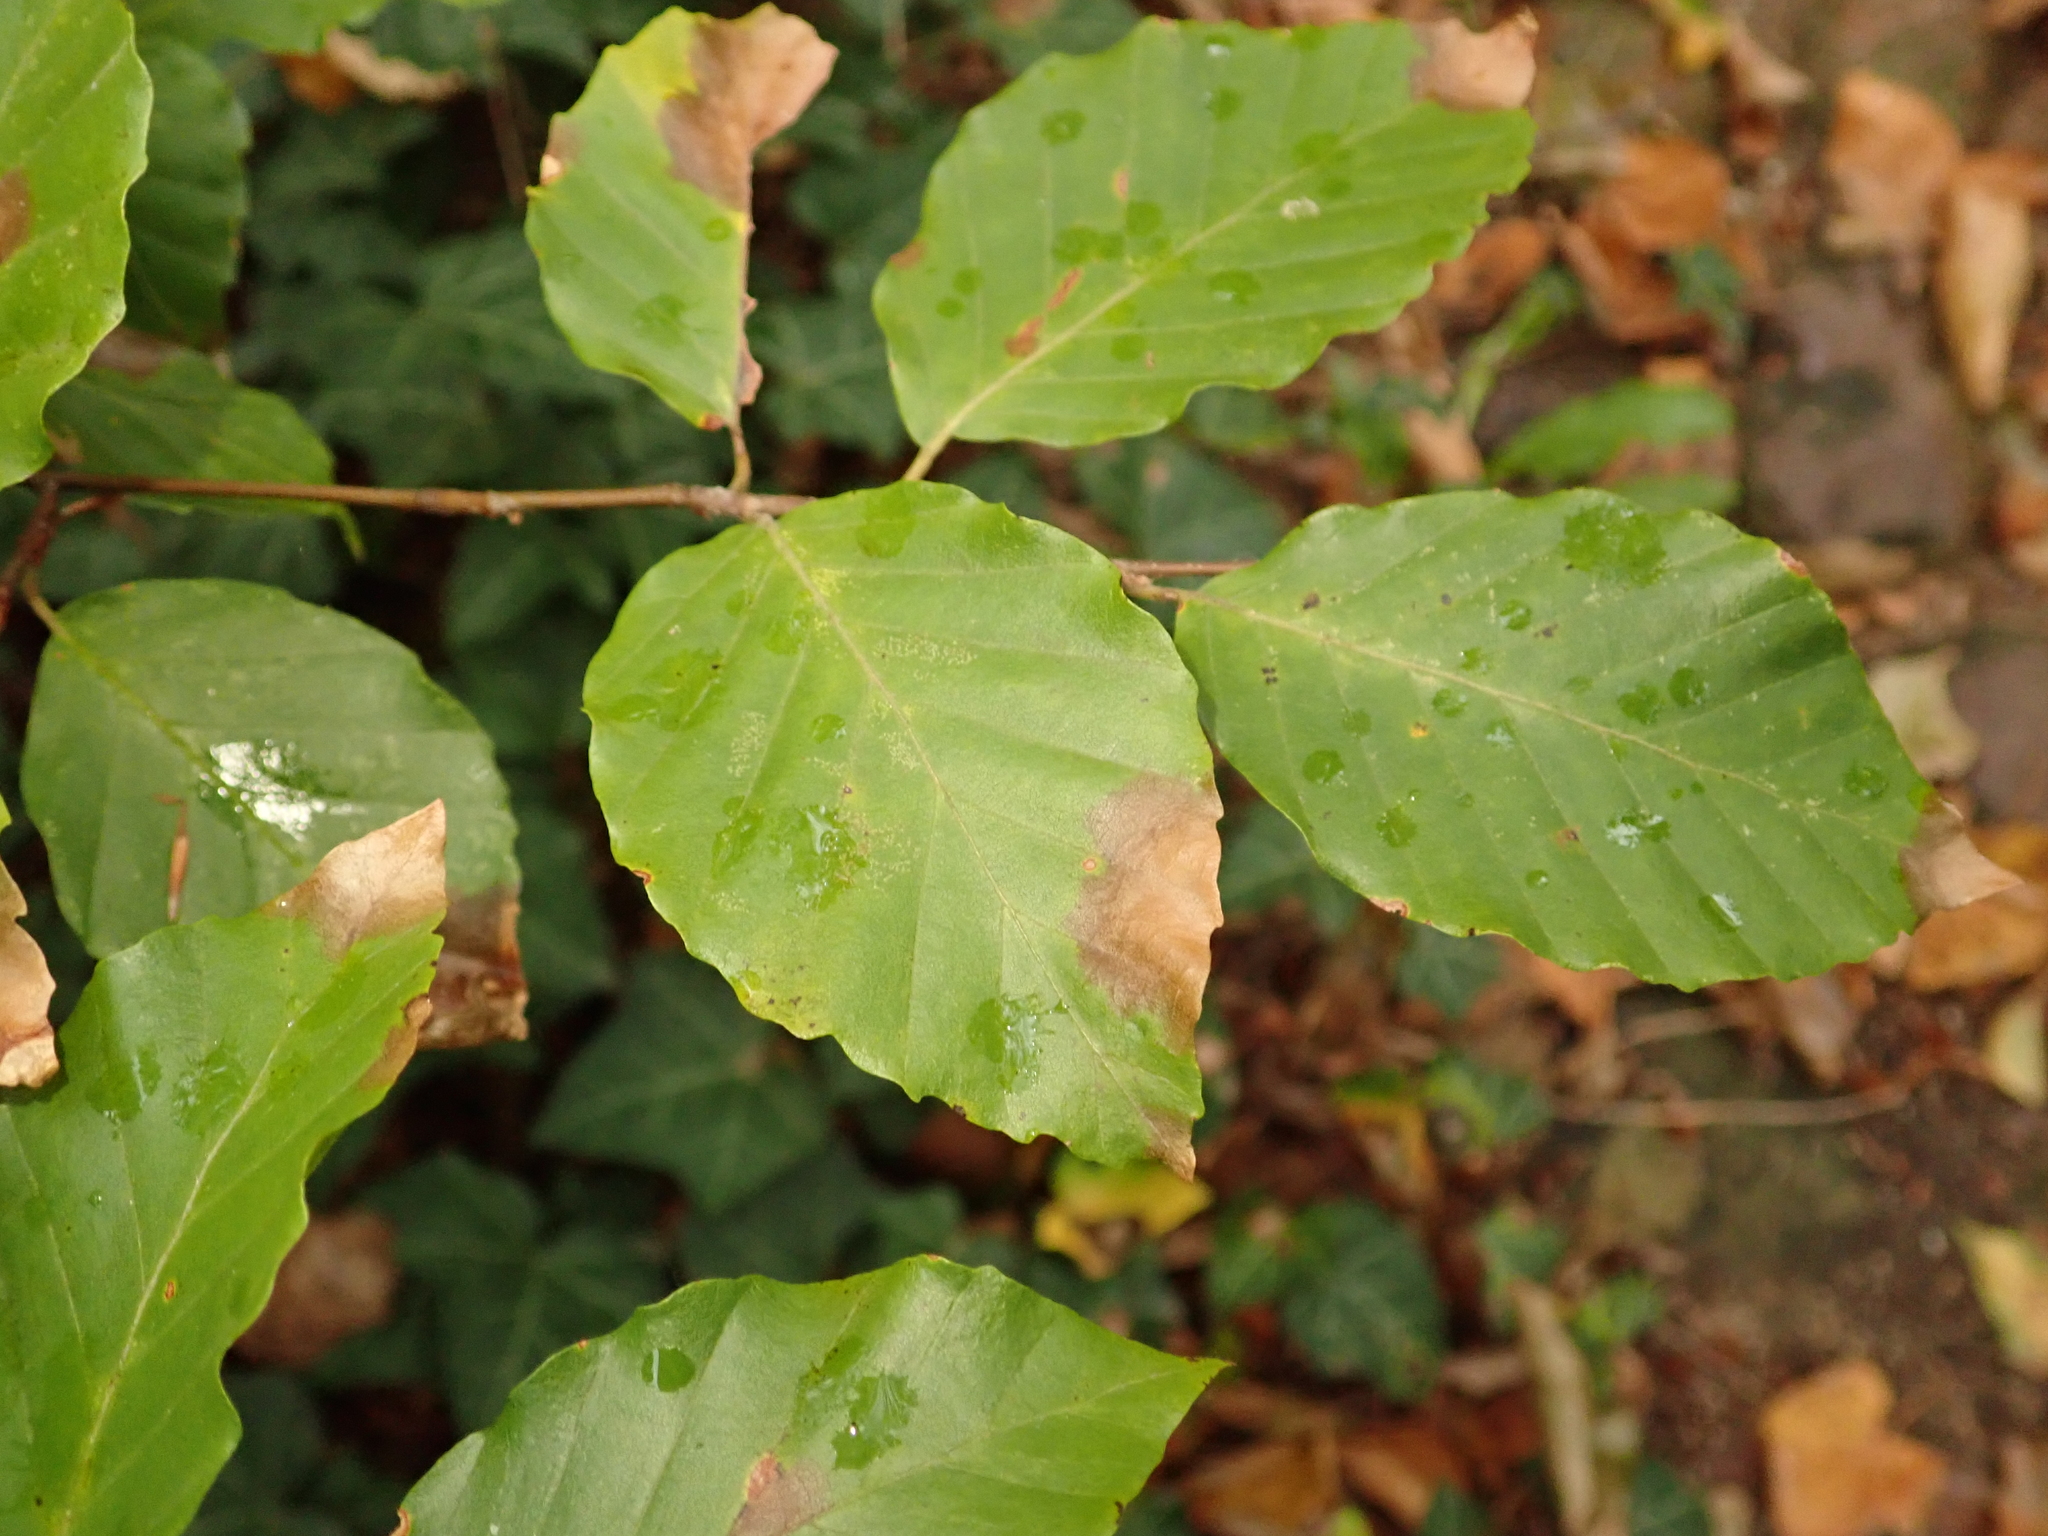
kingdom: Plantae
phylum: Tracheophyta
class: Magnoliopsida
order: Fagales
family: Fagaceae
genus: Fagus
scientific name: Fagus sylvatica
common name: Beech
